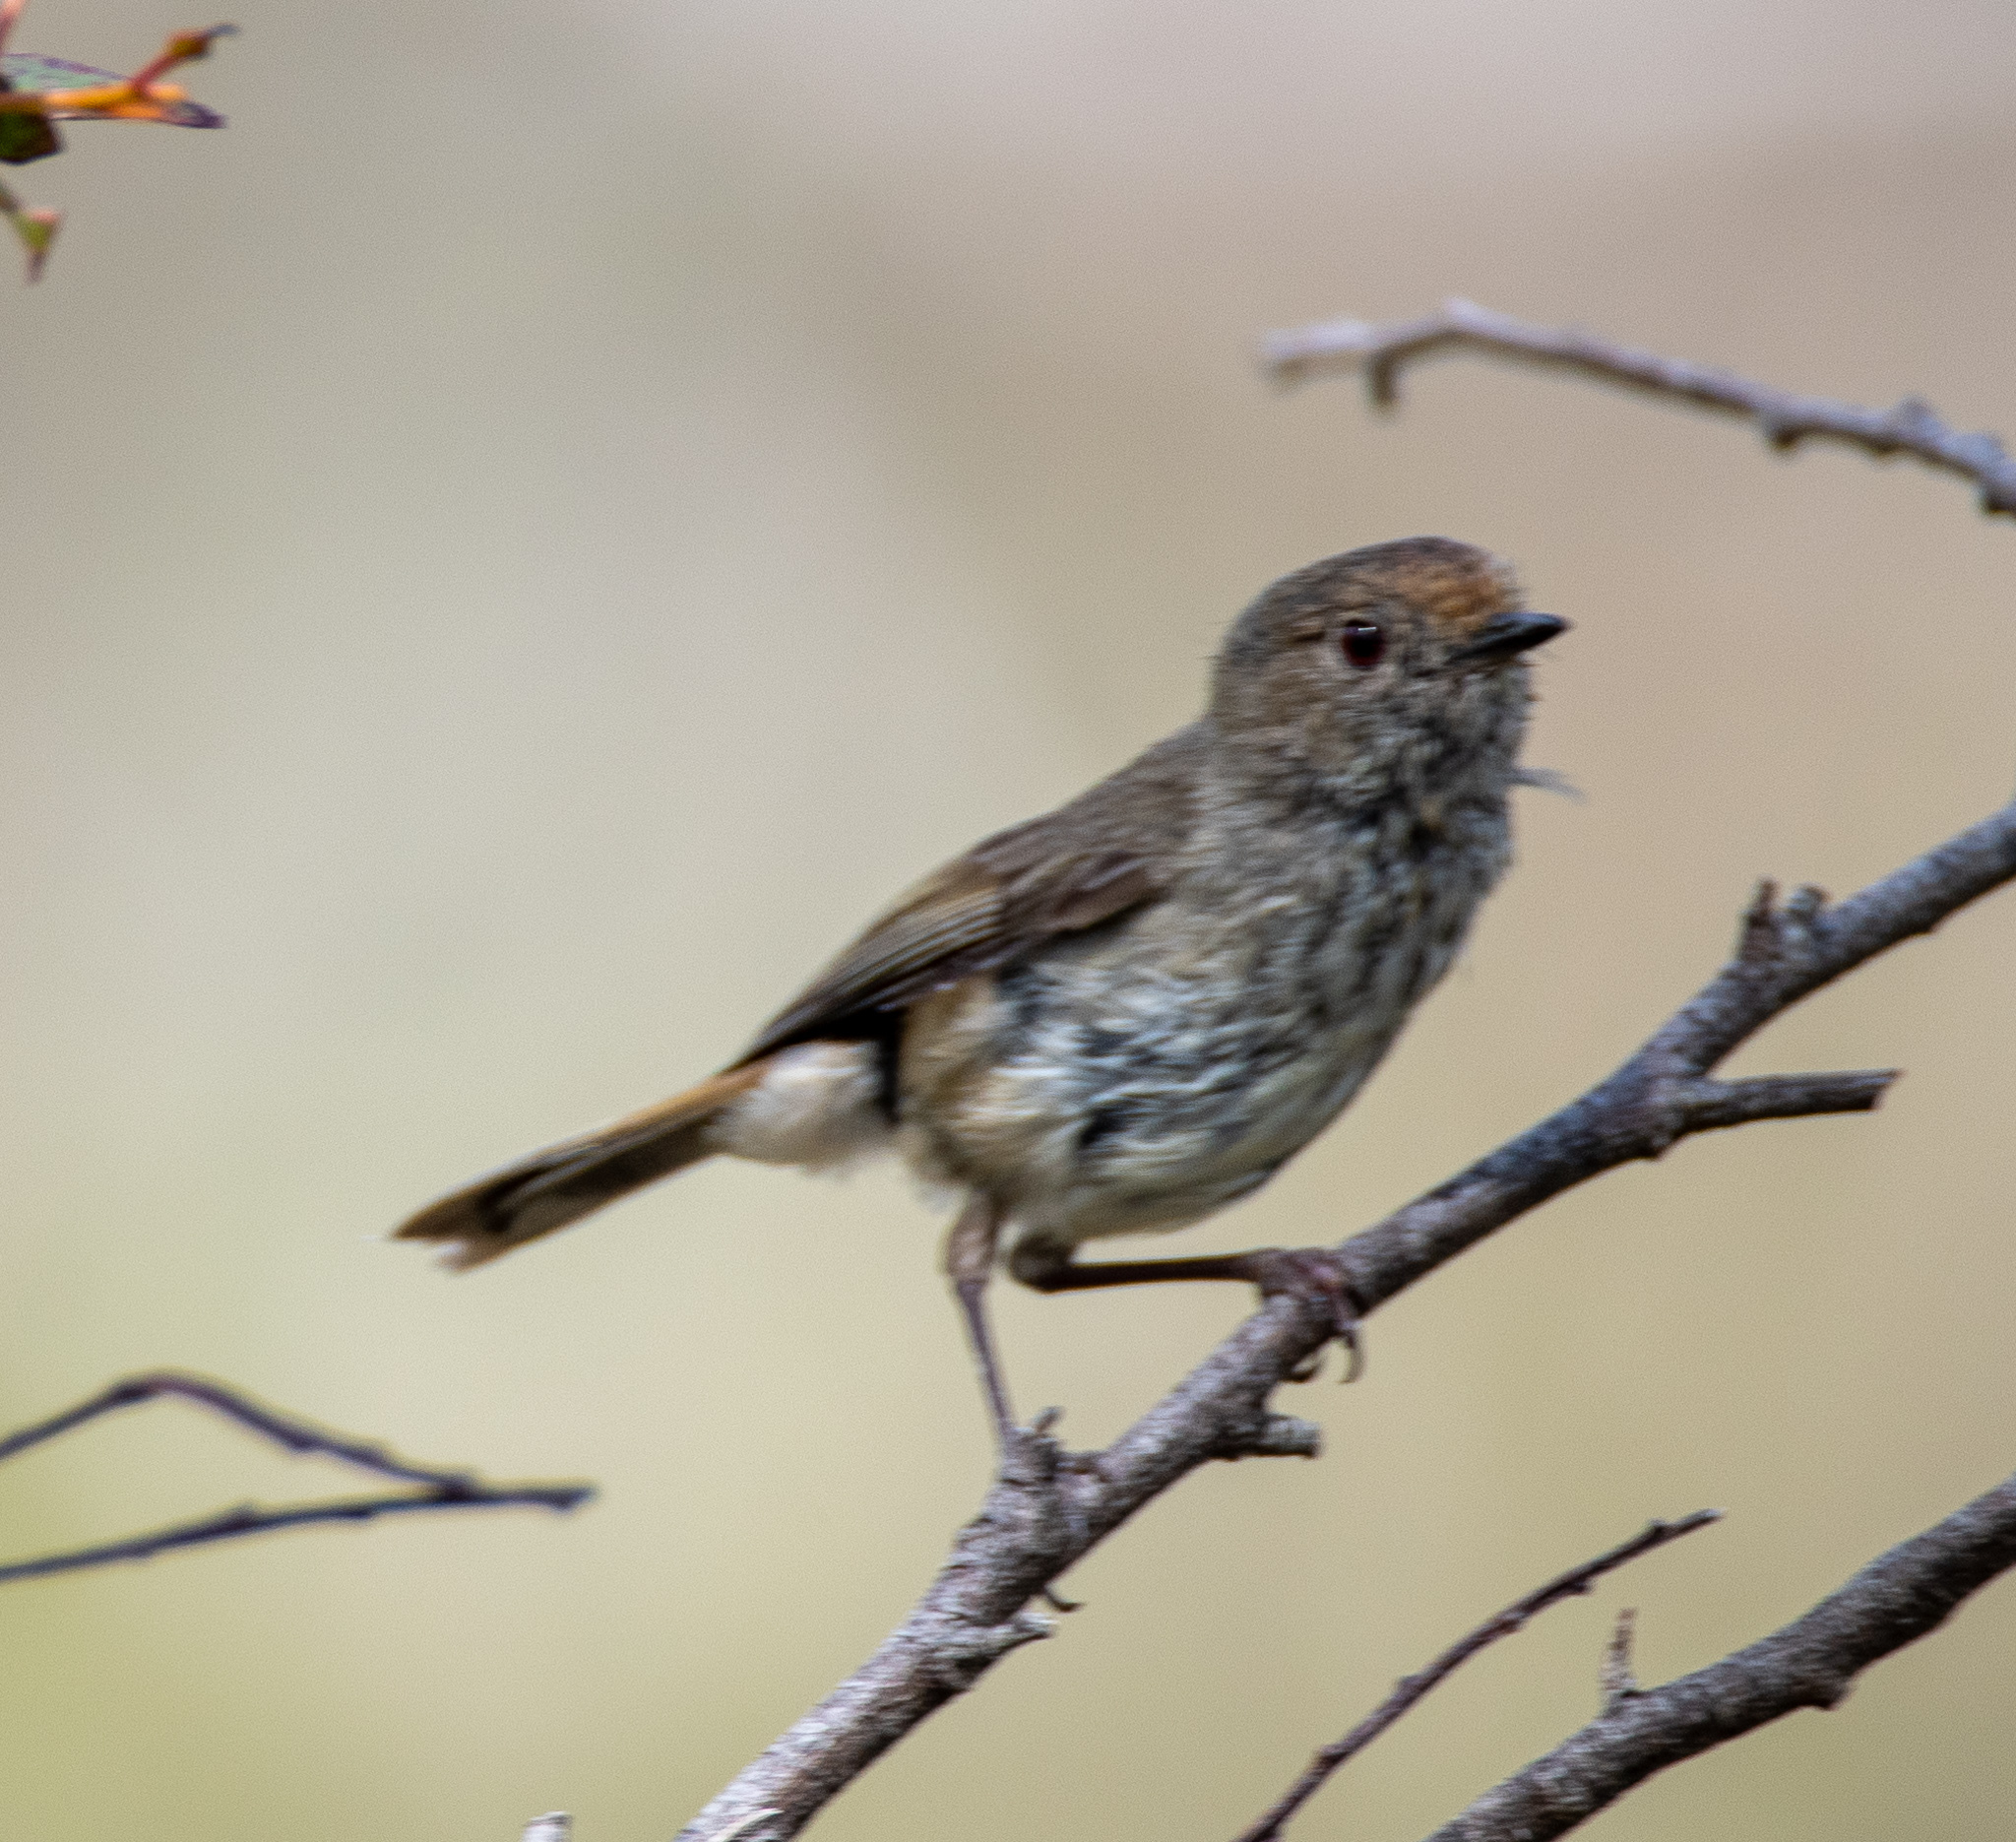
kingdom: Animalia
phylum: Chordata
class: Aves
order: Passeriformes
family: Acanthizidae
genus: Acanthiza
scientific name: Acanthiza pusilla
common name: Brown thornbill
